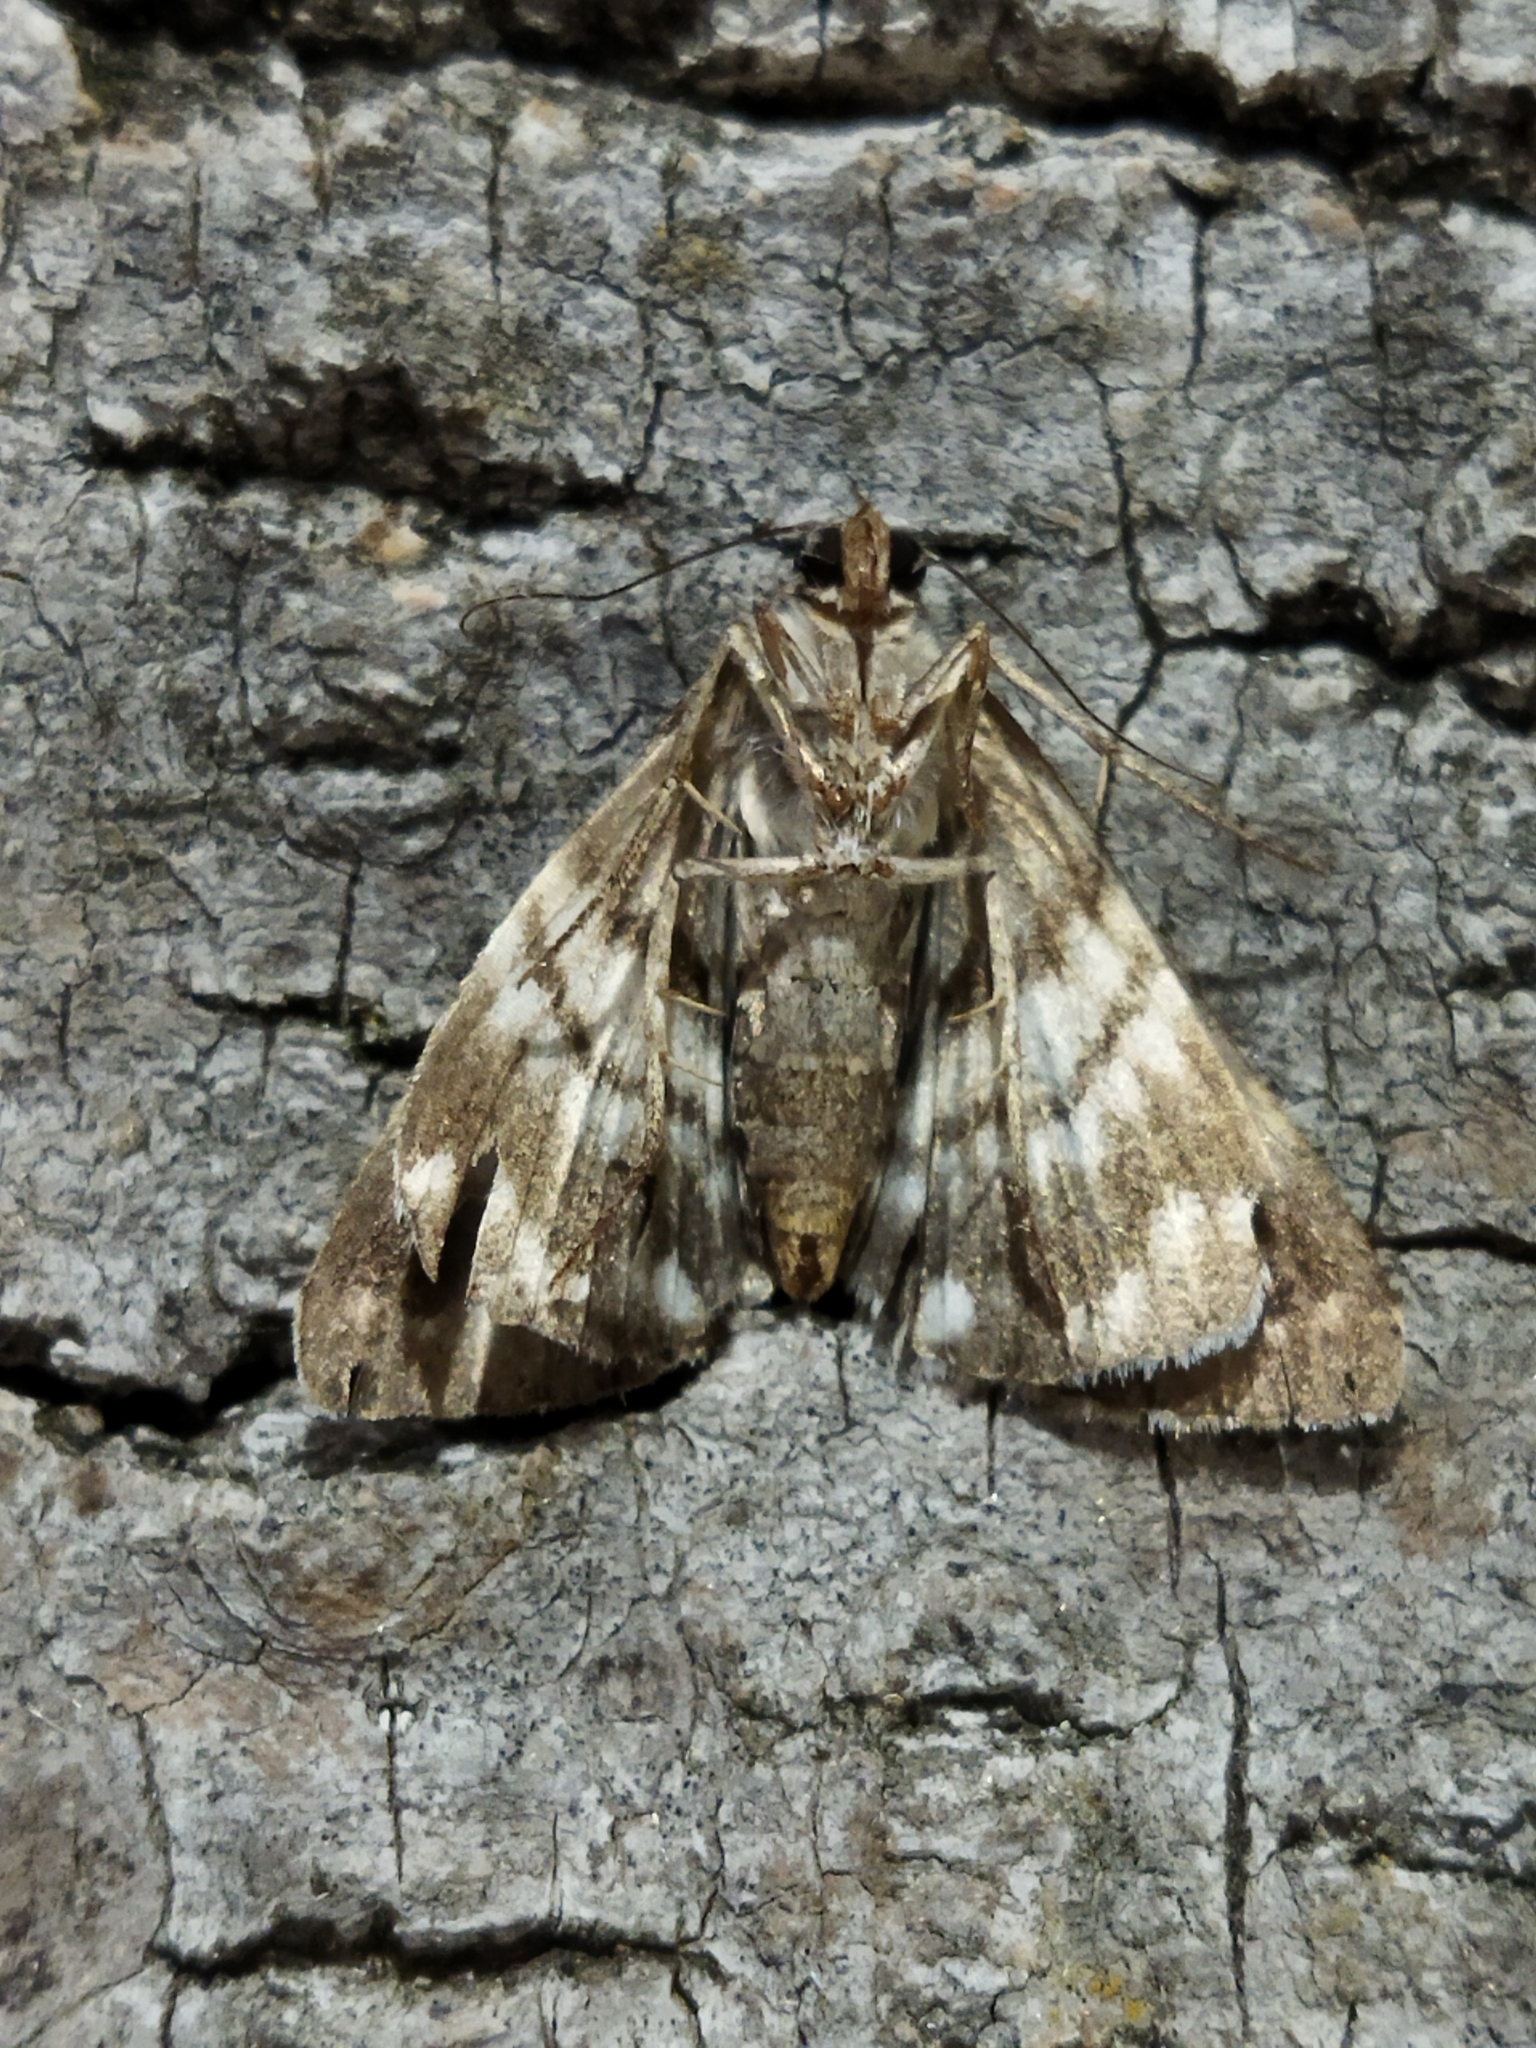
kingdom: Animalia
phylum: Arthropoda
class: Insecta
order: Lepidoptera
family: Erebidae
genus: Grammodes
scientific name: Grammodes stolida
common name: Geometrician
